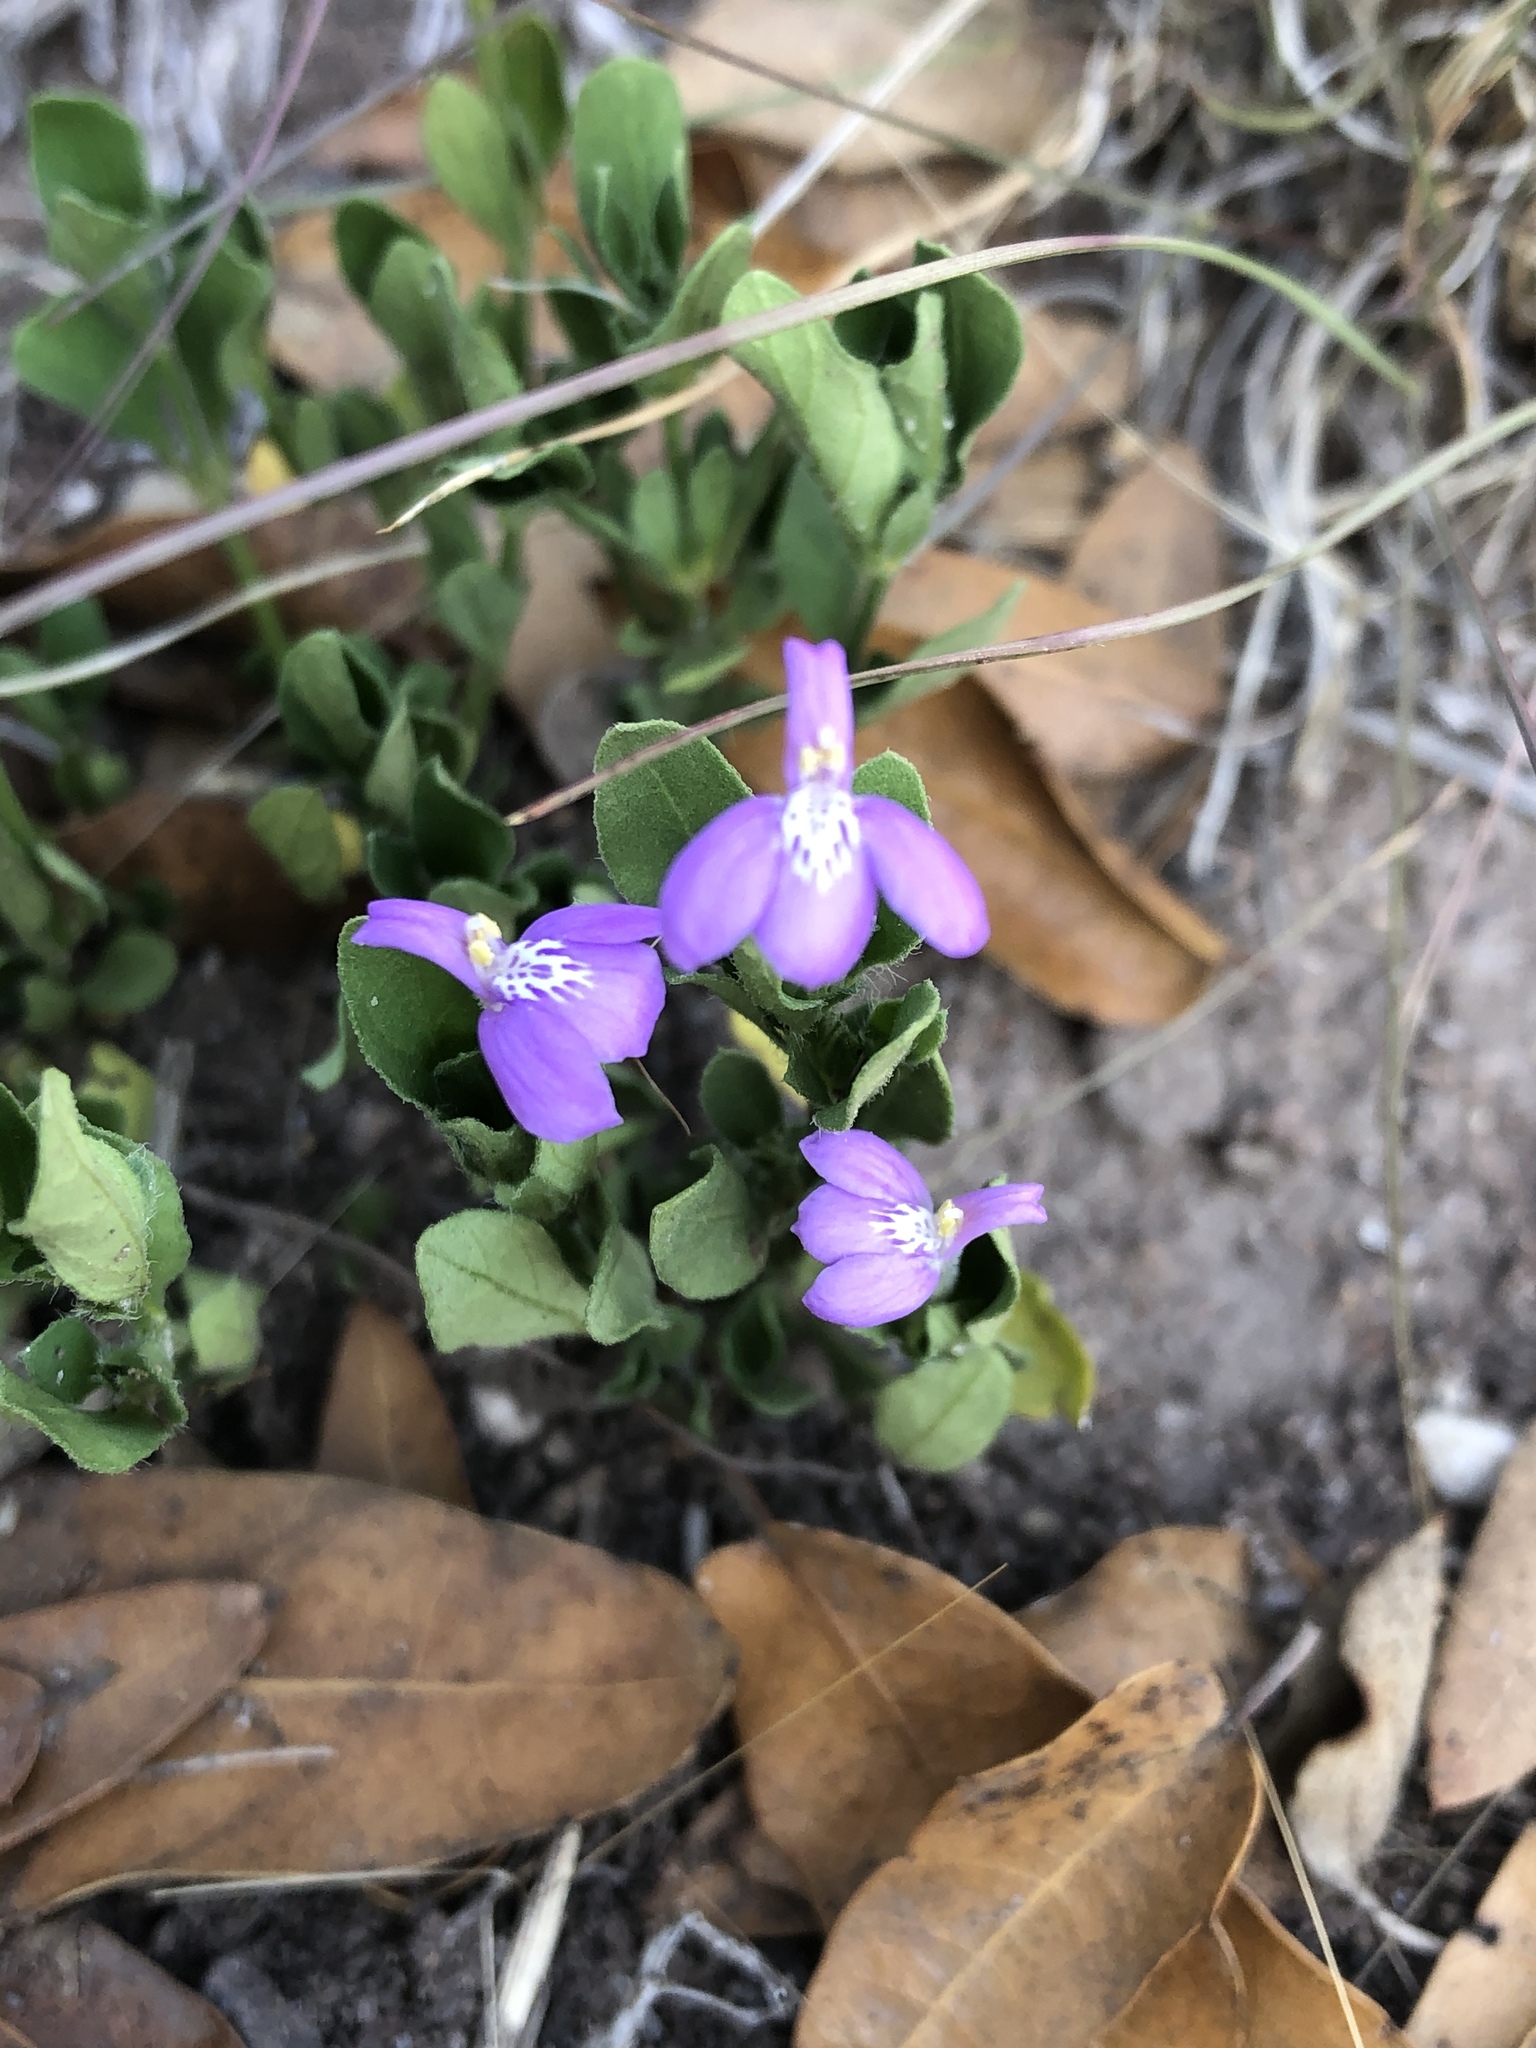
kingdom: Plantae
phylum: Tracheophyta
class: Magnoliopsida
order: Lamiales
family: Acanthaceae
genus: Justicia
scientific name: Justicia pilosella
